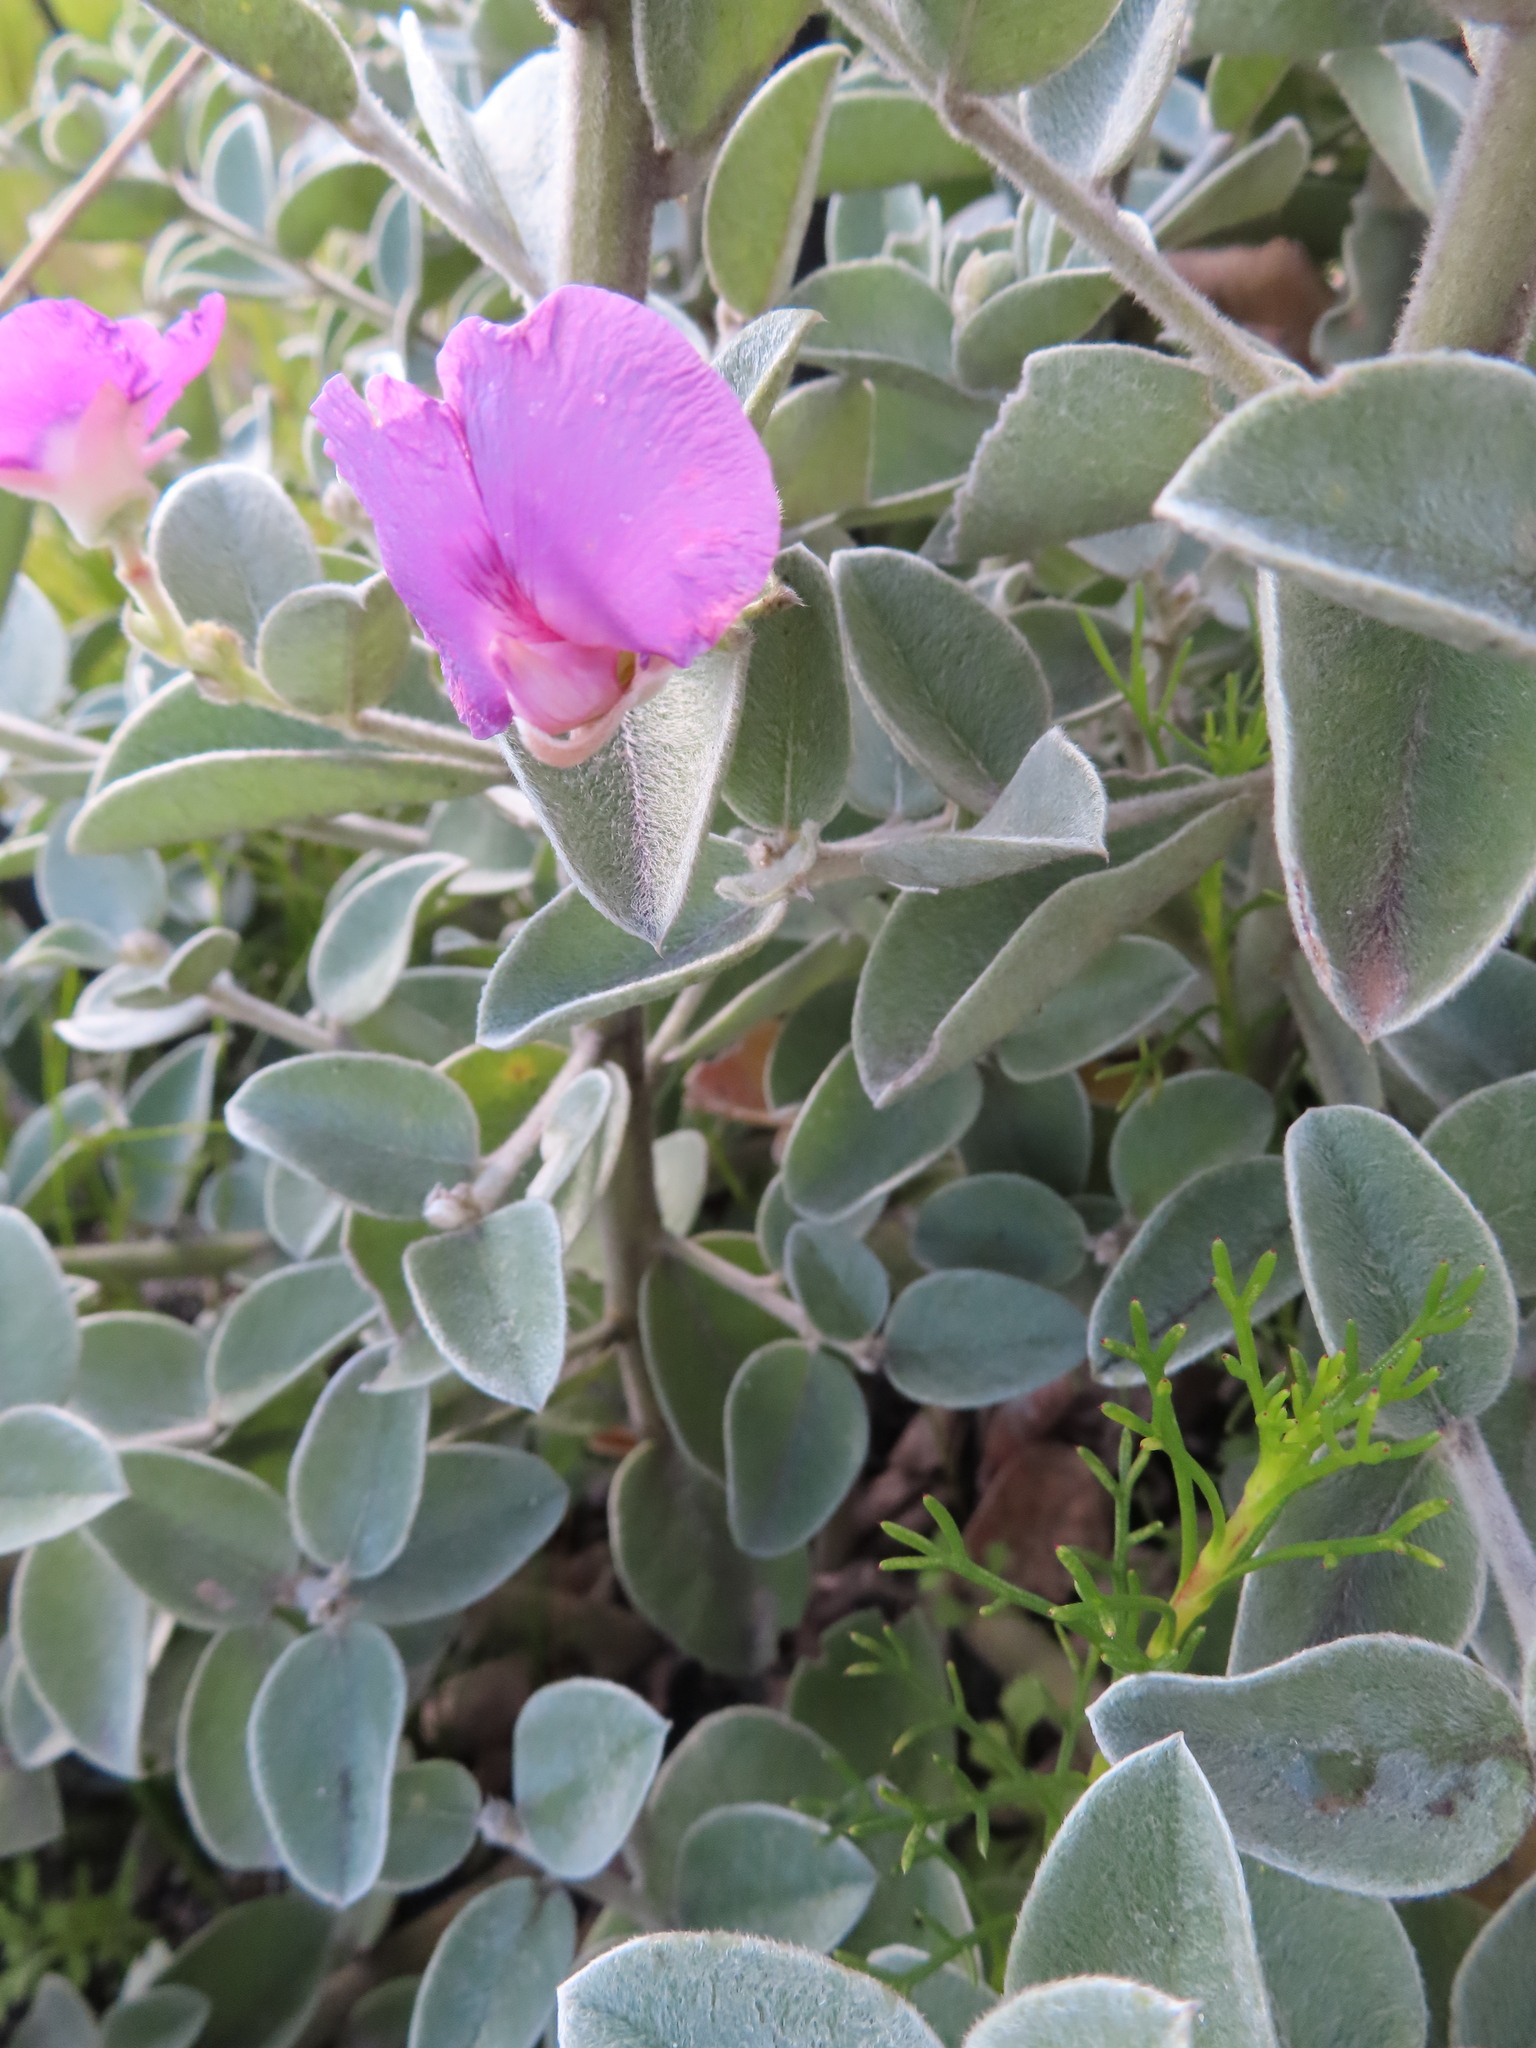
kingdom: Plantae
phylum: Tracheophyta
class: Magnoliopsida
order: Fabales
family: Fabaceae
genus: Podalyria
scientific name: Podalyria sericea
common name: Silver podalyria
